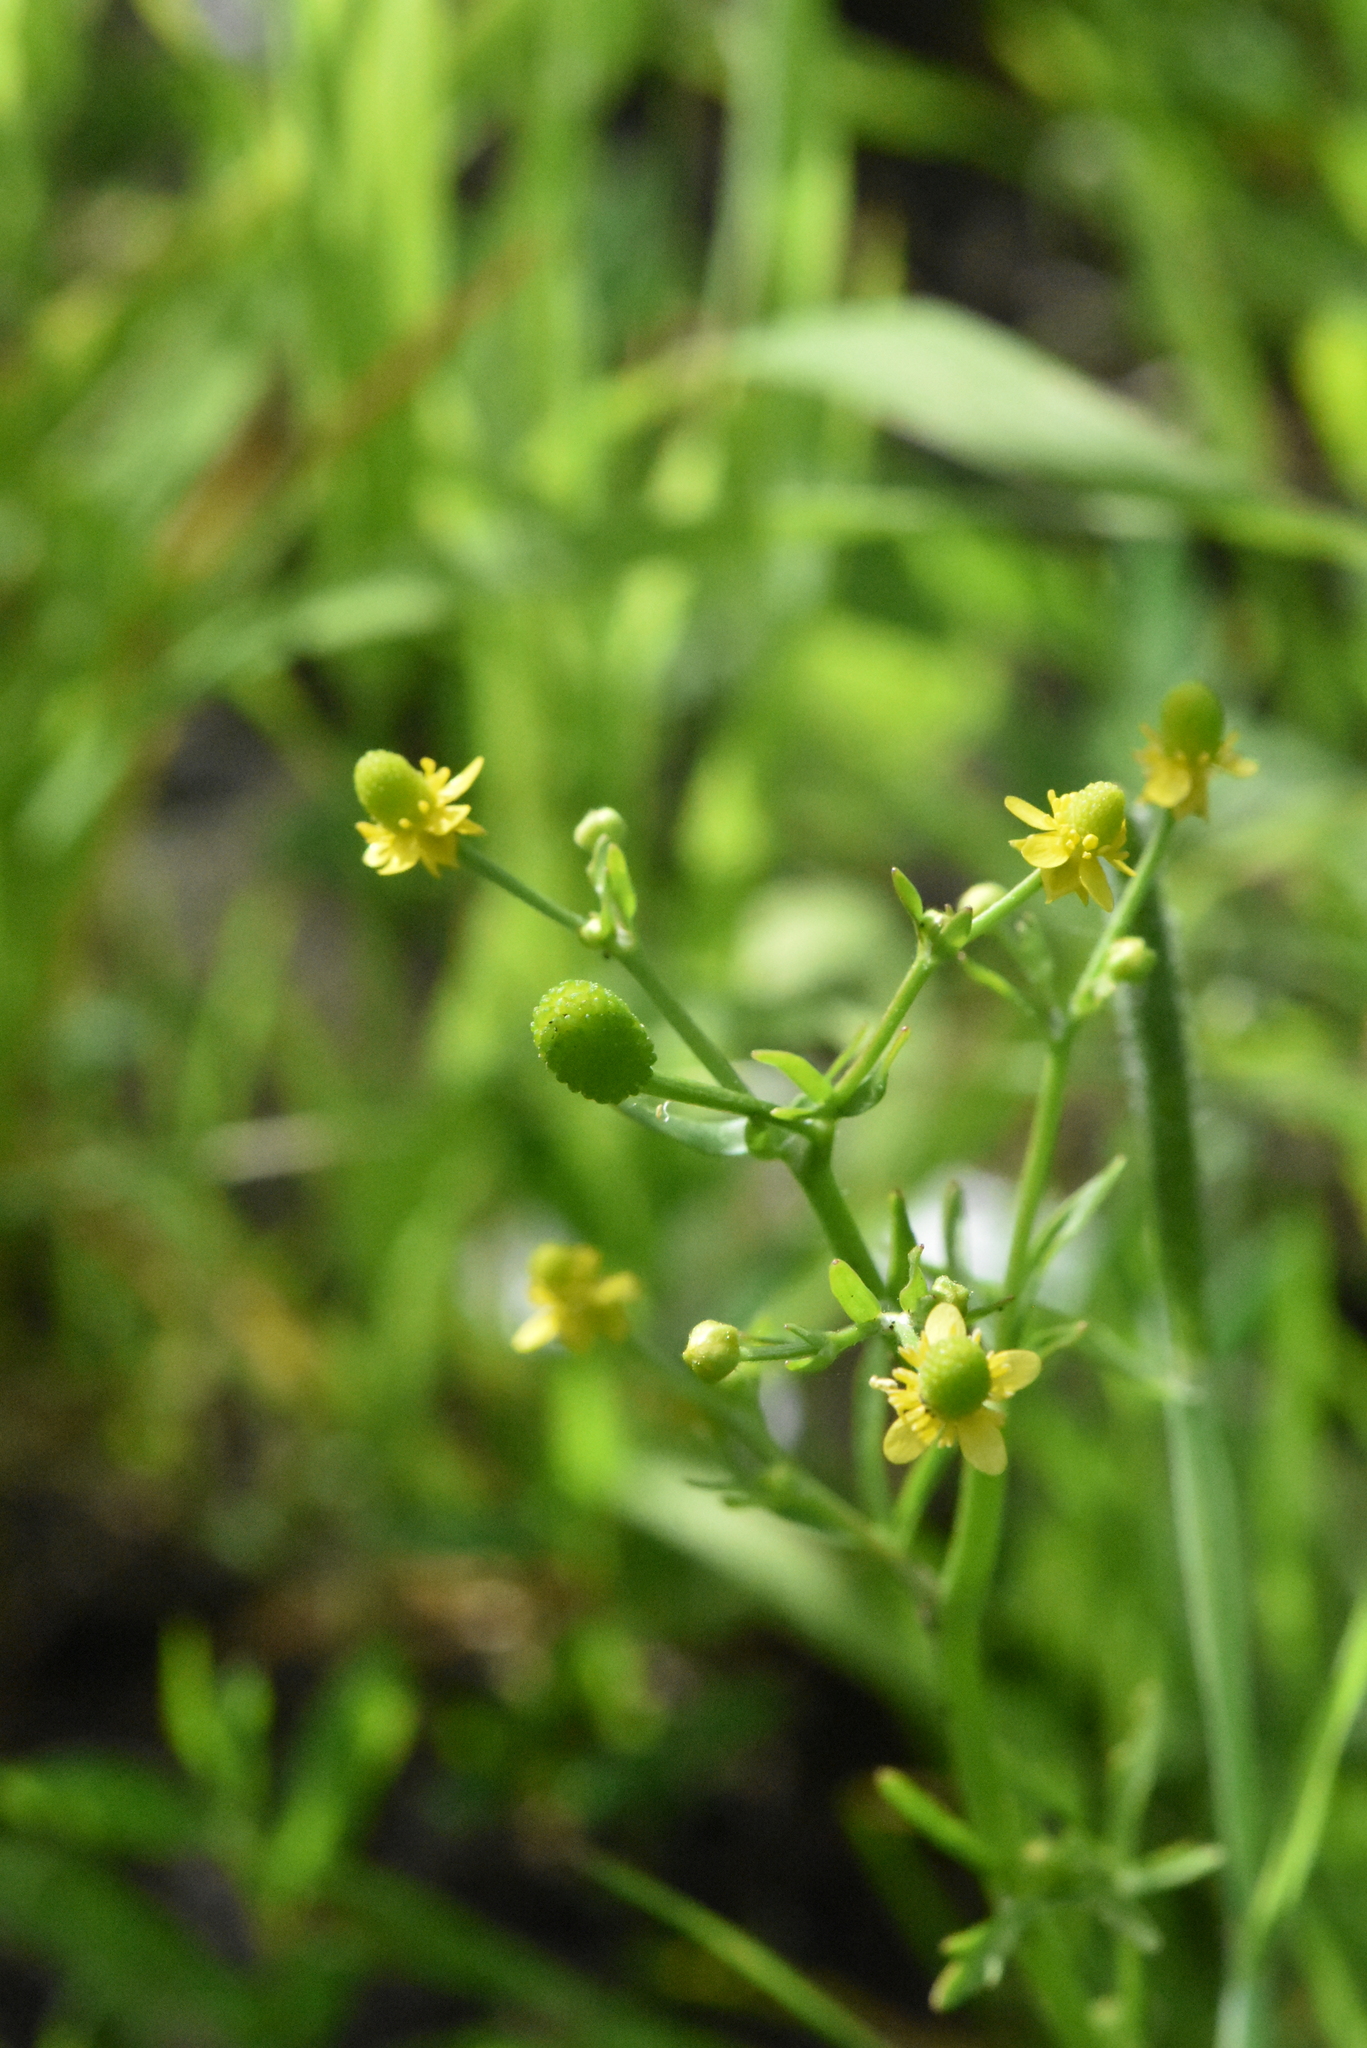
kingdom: Plantae
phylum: Tracheophyta
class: Magnoliopsida
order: Ranunculales
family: Ranunculaceae
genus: Ranunculus
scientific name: Ranunculus sceleratus
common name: Celery-leaved buttercup
